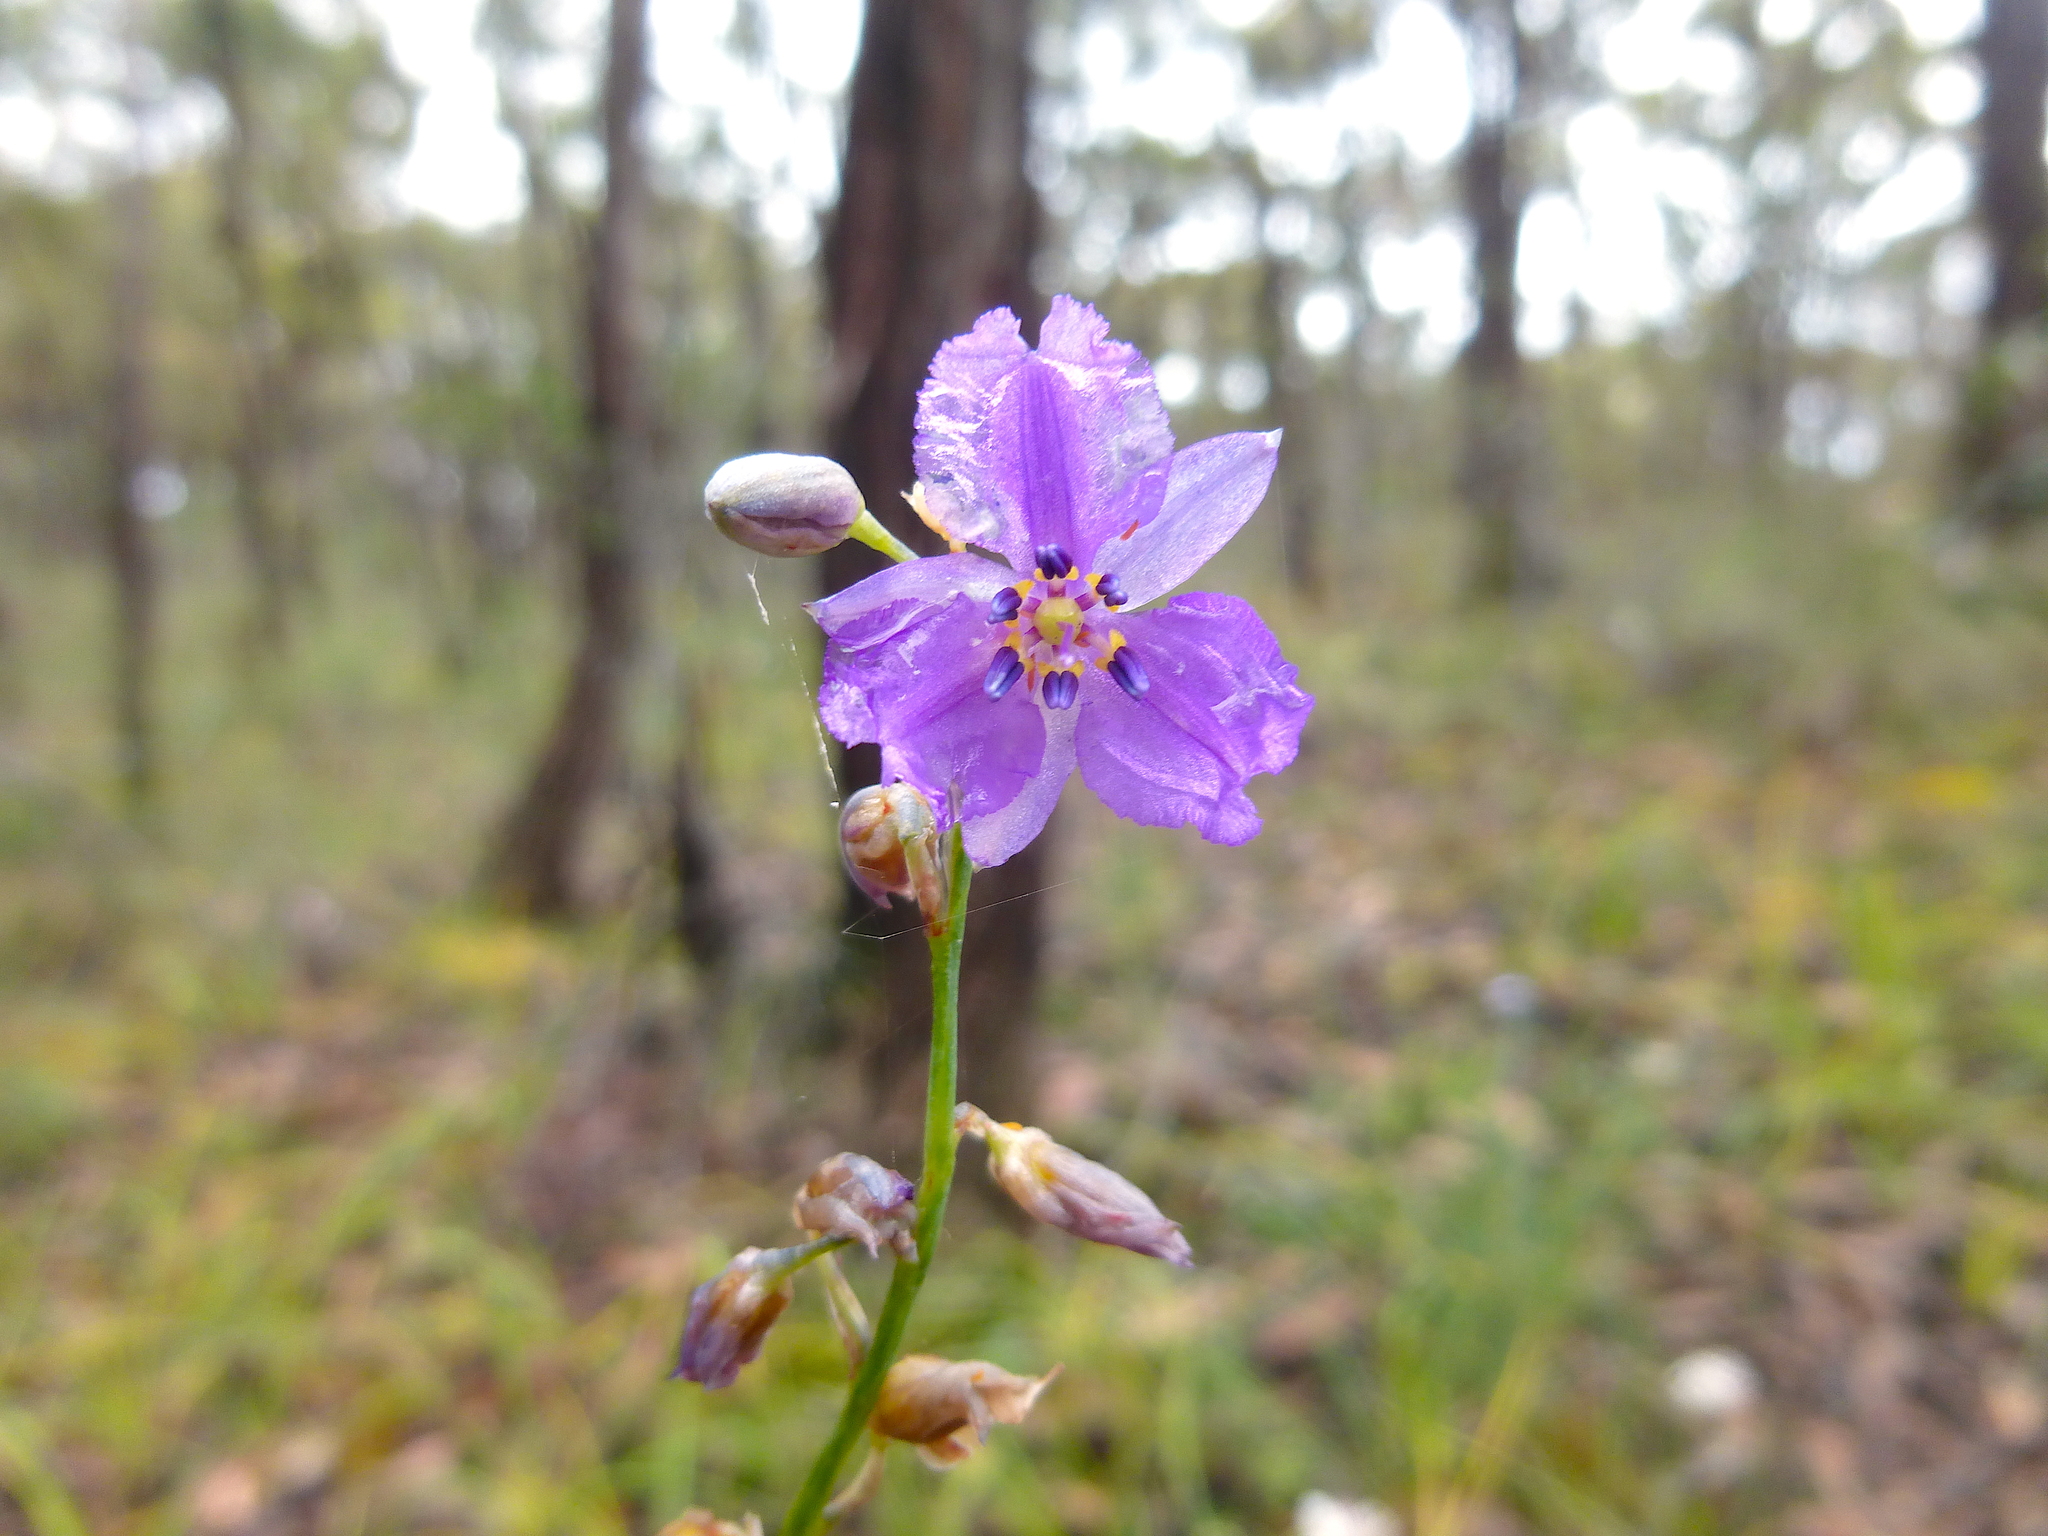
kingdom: Plantae
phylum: Tracheophyta
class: Liliopsida
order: Asparagales
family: Asparagaceae
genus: Arthropodium
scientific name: Arthropodium strictum
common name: Chocolate-lily
